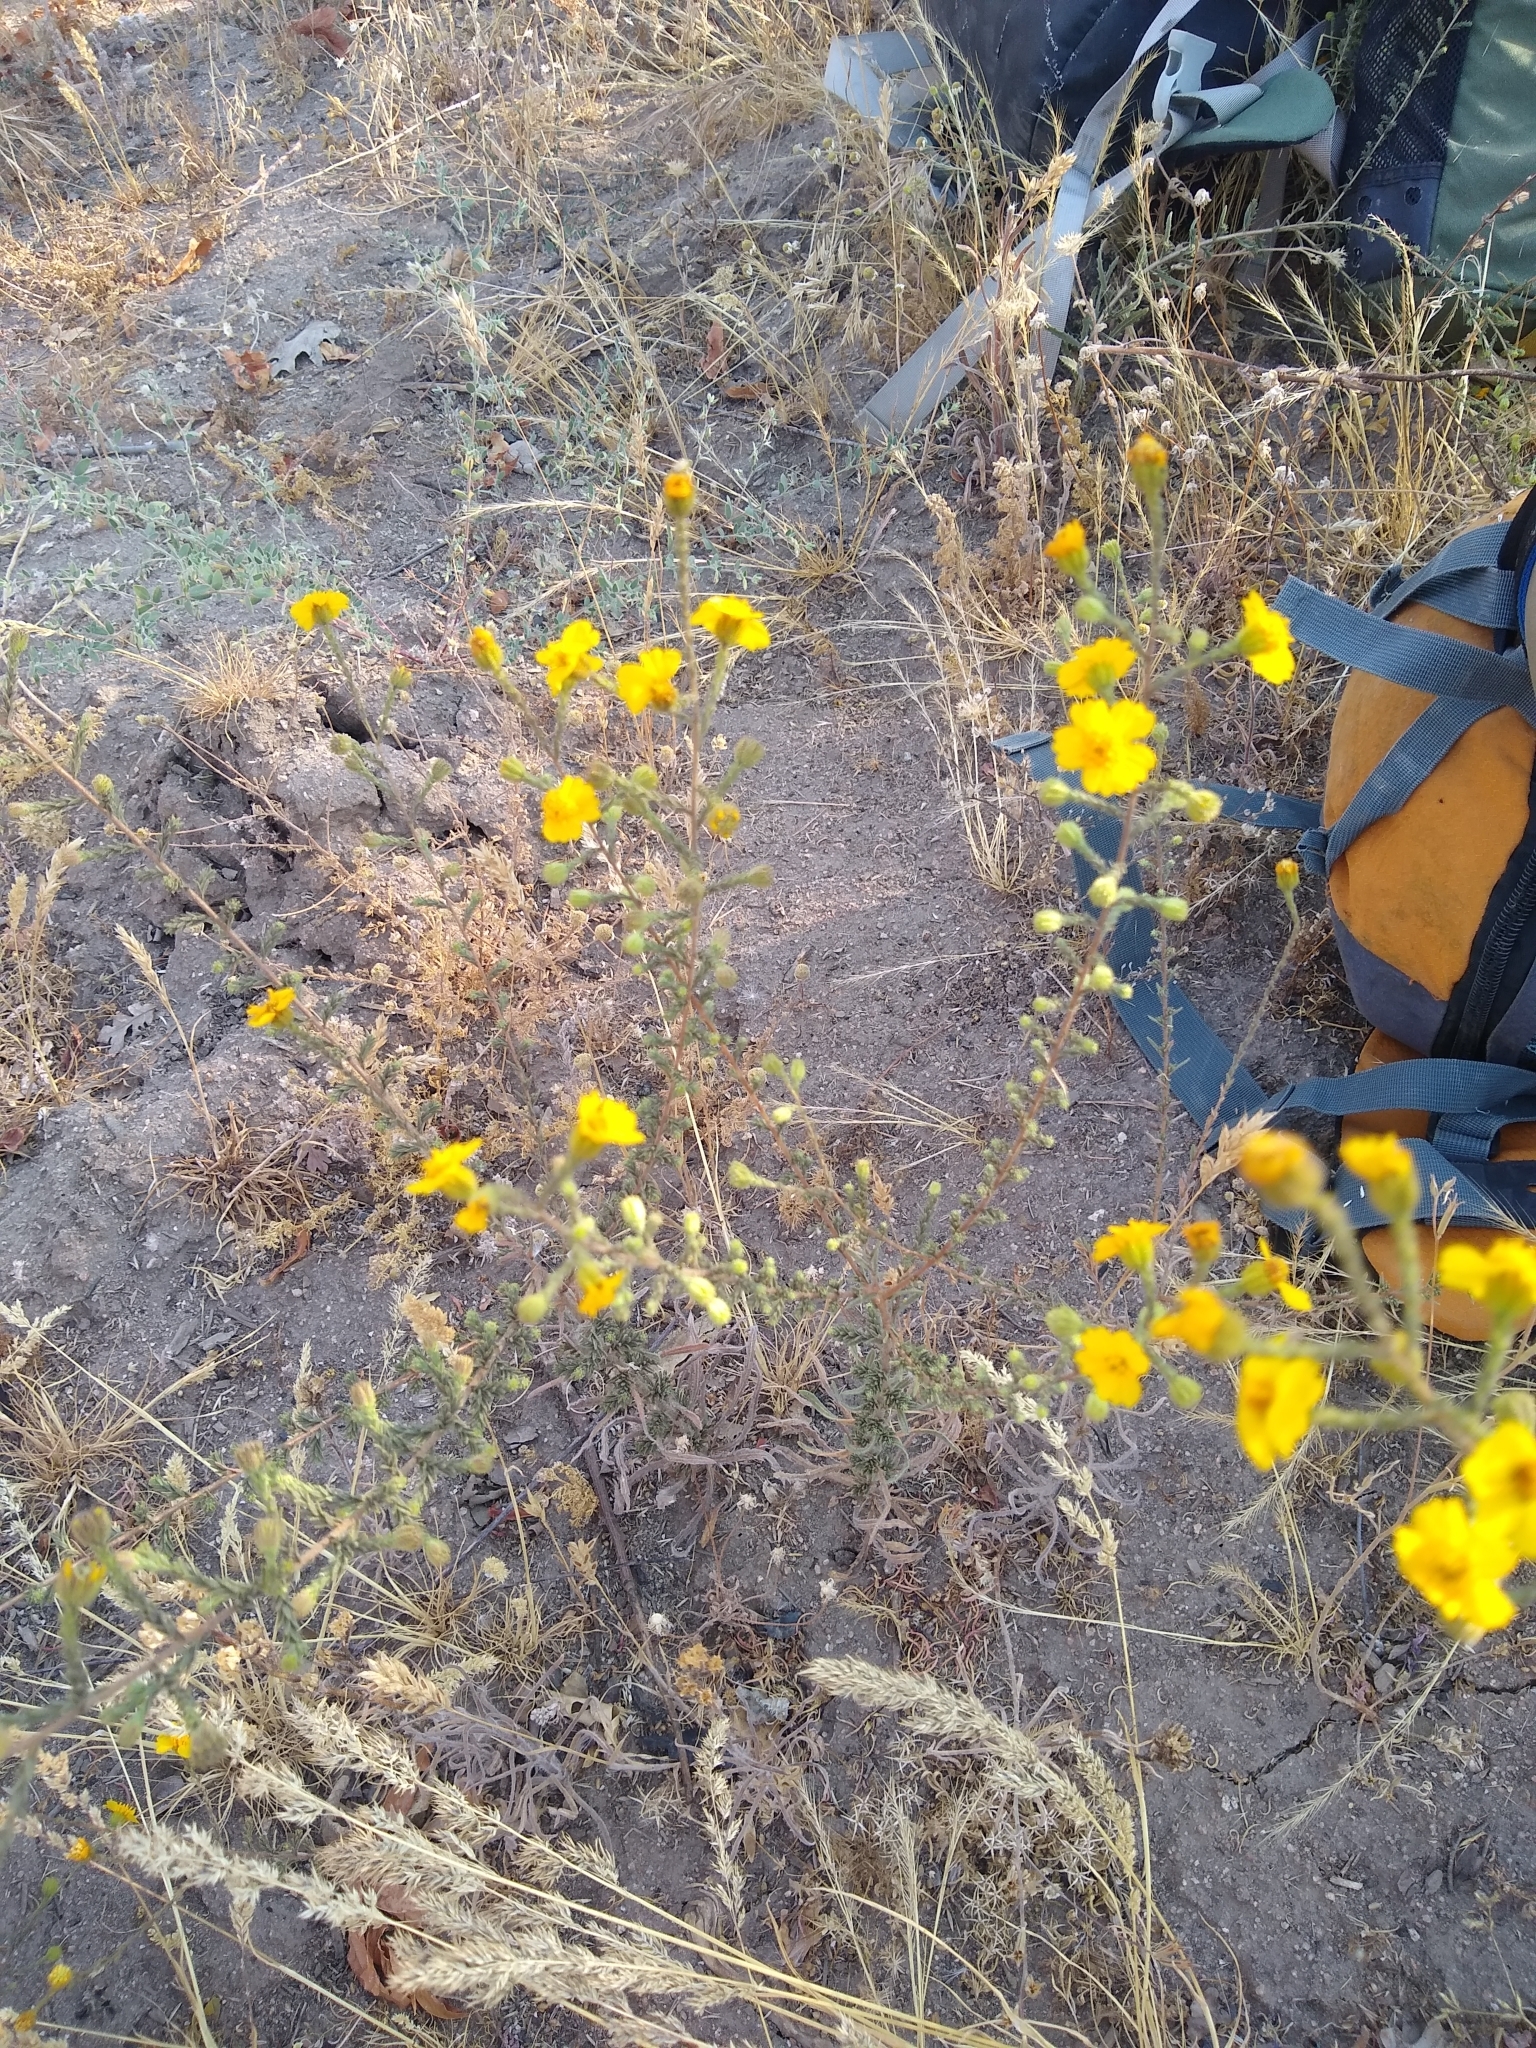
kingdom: Plantae
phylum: Tracheophyta
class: Magnoliopsida
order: Asterales
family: Asteraceae
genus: Holocarpha
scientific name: Holocarpha heermannii
